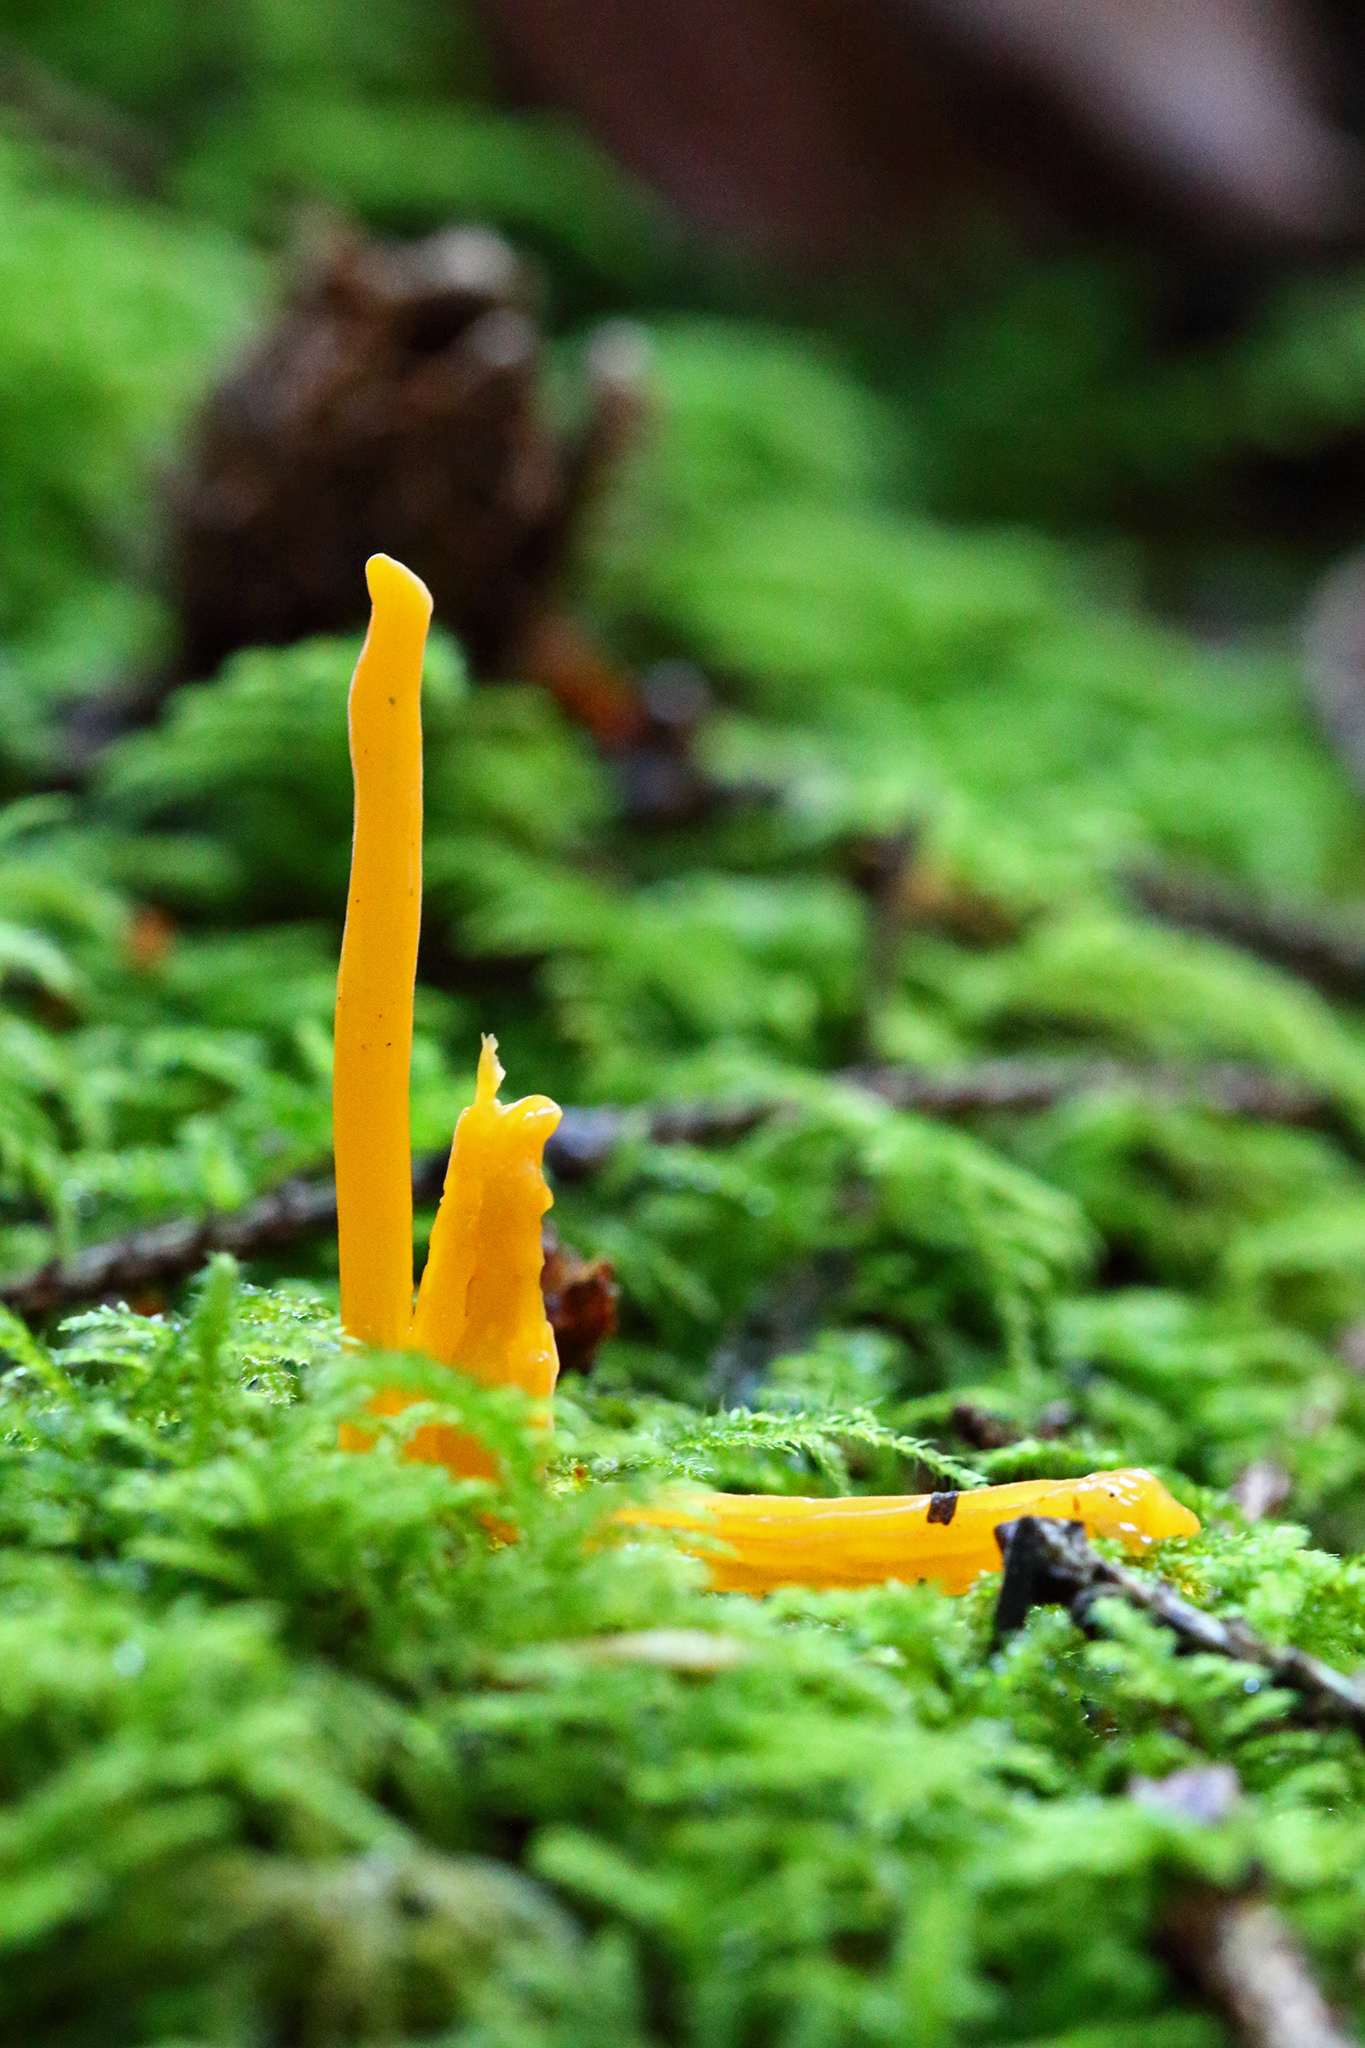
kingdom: Fungi
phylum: Basidiomycota
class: Dacrymycetes
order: Dacrymycetales
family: Dacrymycetaceae
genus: Calocera
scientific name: Calocera viscosa
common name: Yellow stagshorn
